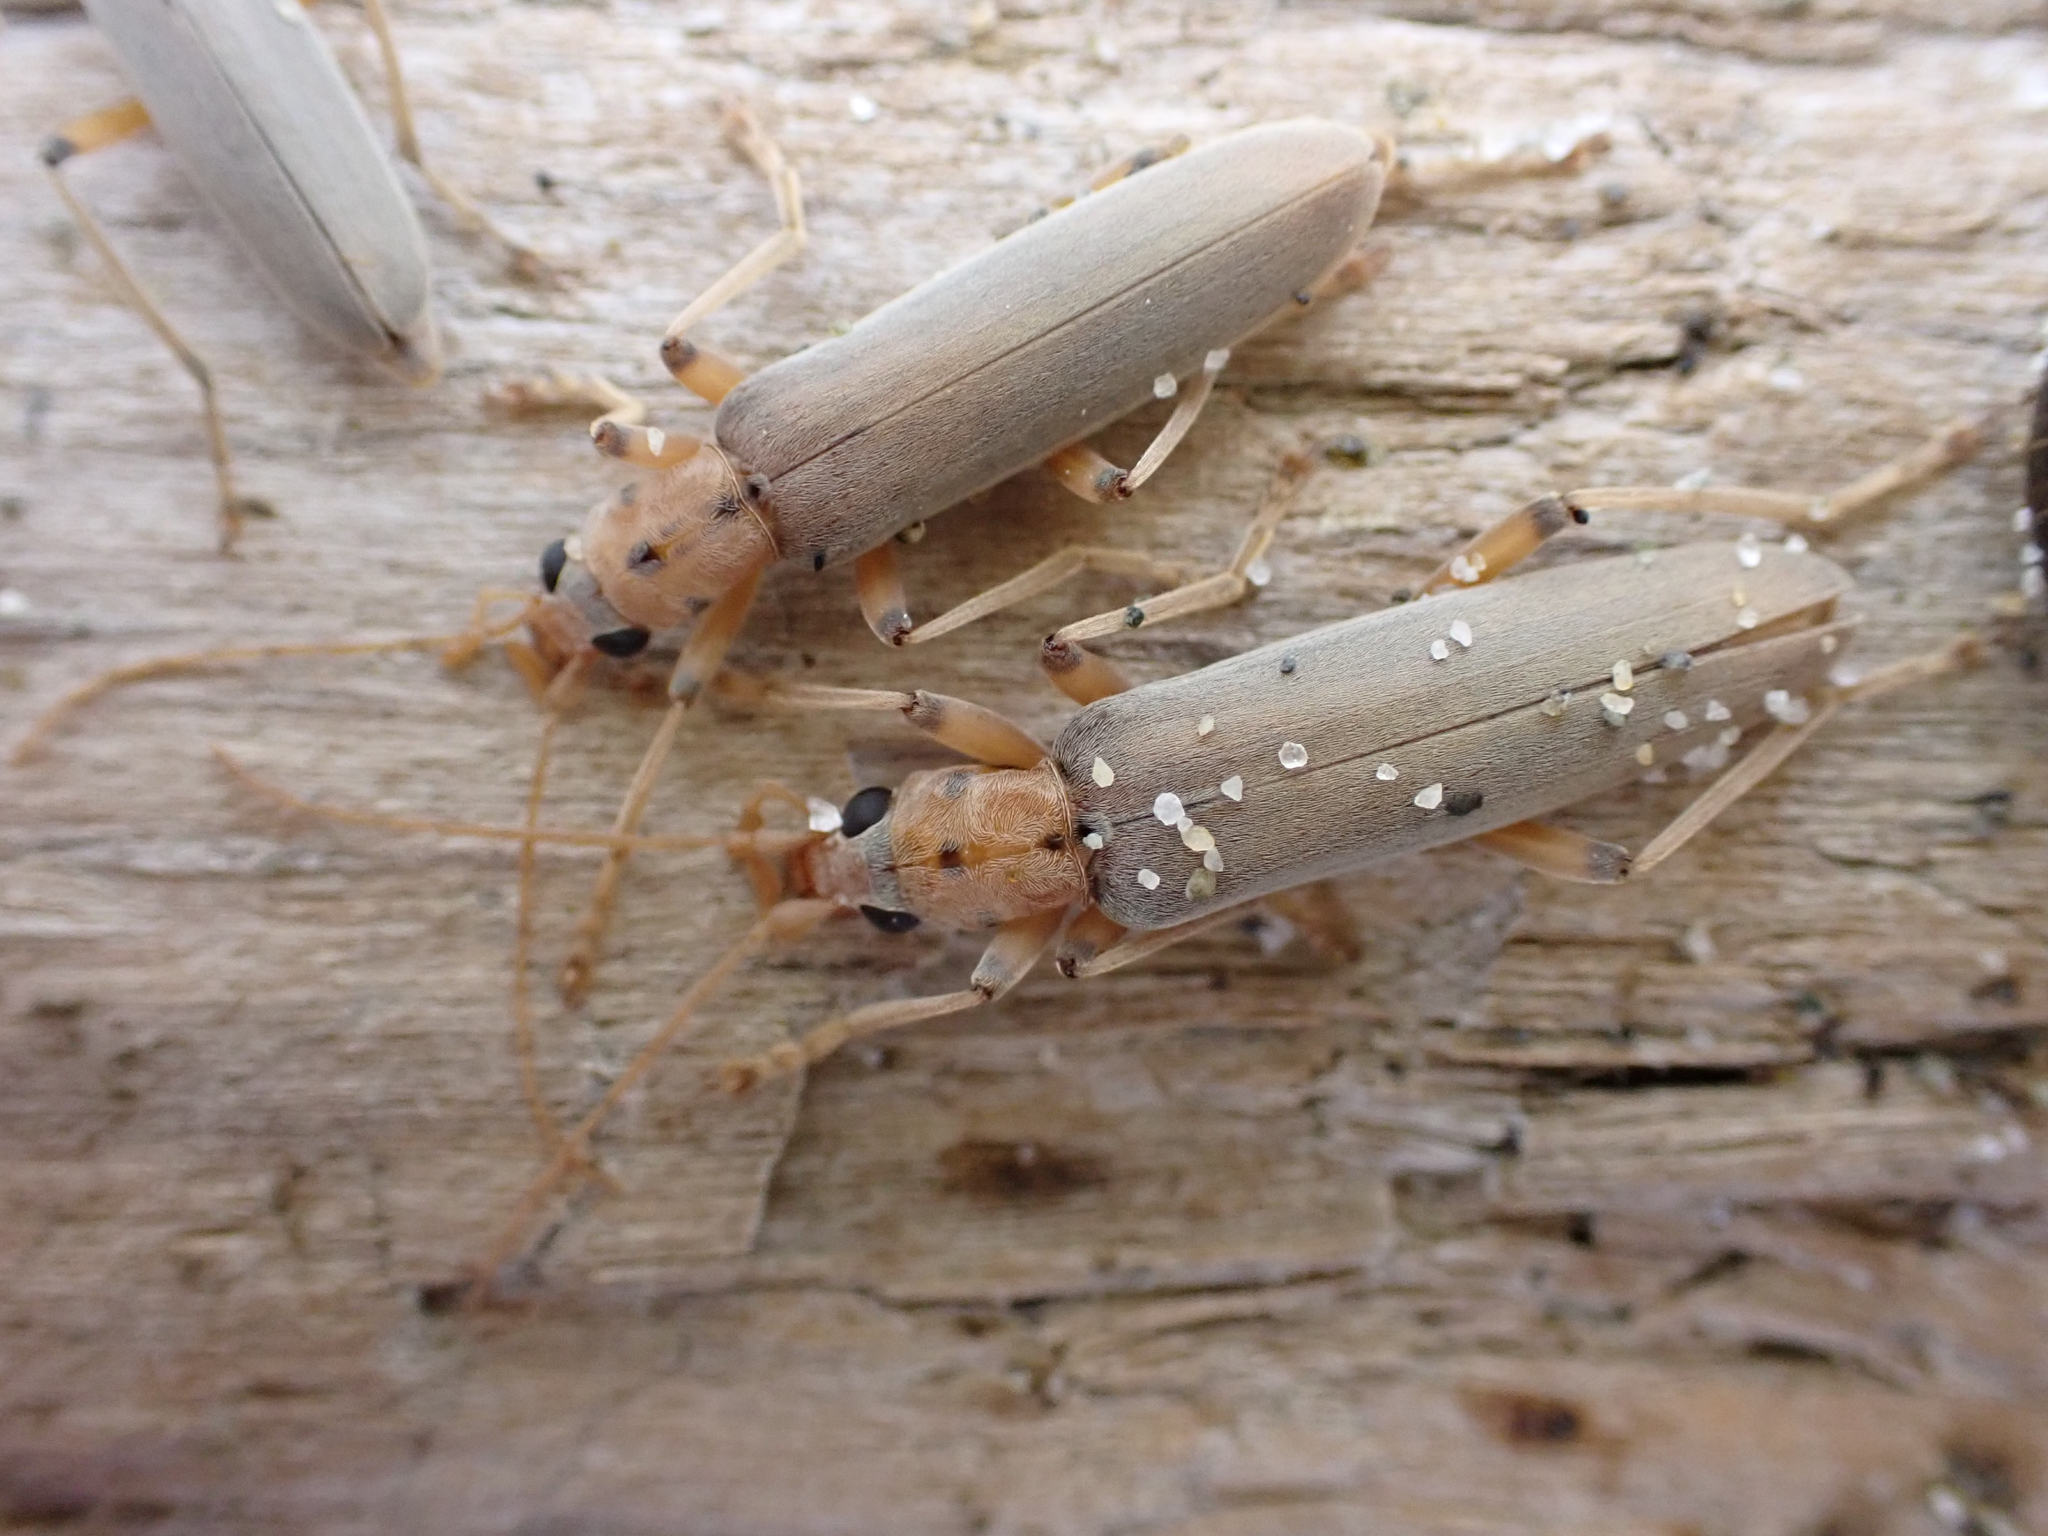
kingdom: Animalia
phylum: Arthropoda
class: Insecta
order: Coleoptera
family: Oedemeridae
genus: Copidita
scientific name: Copidita quadrimaculata
